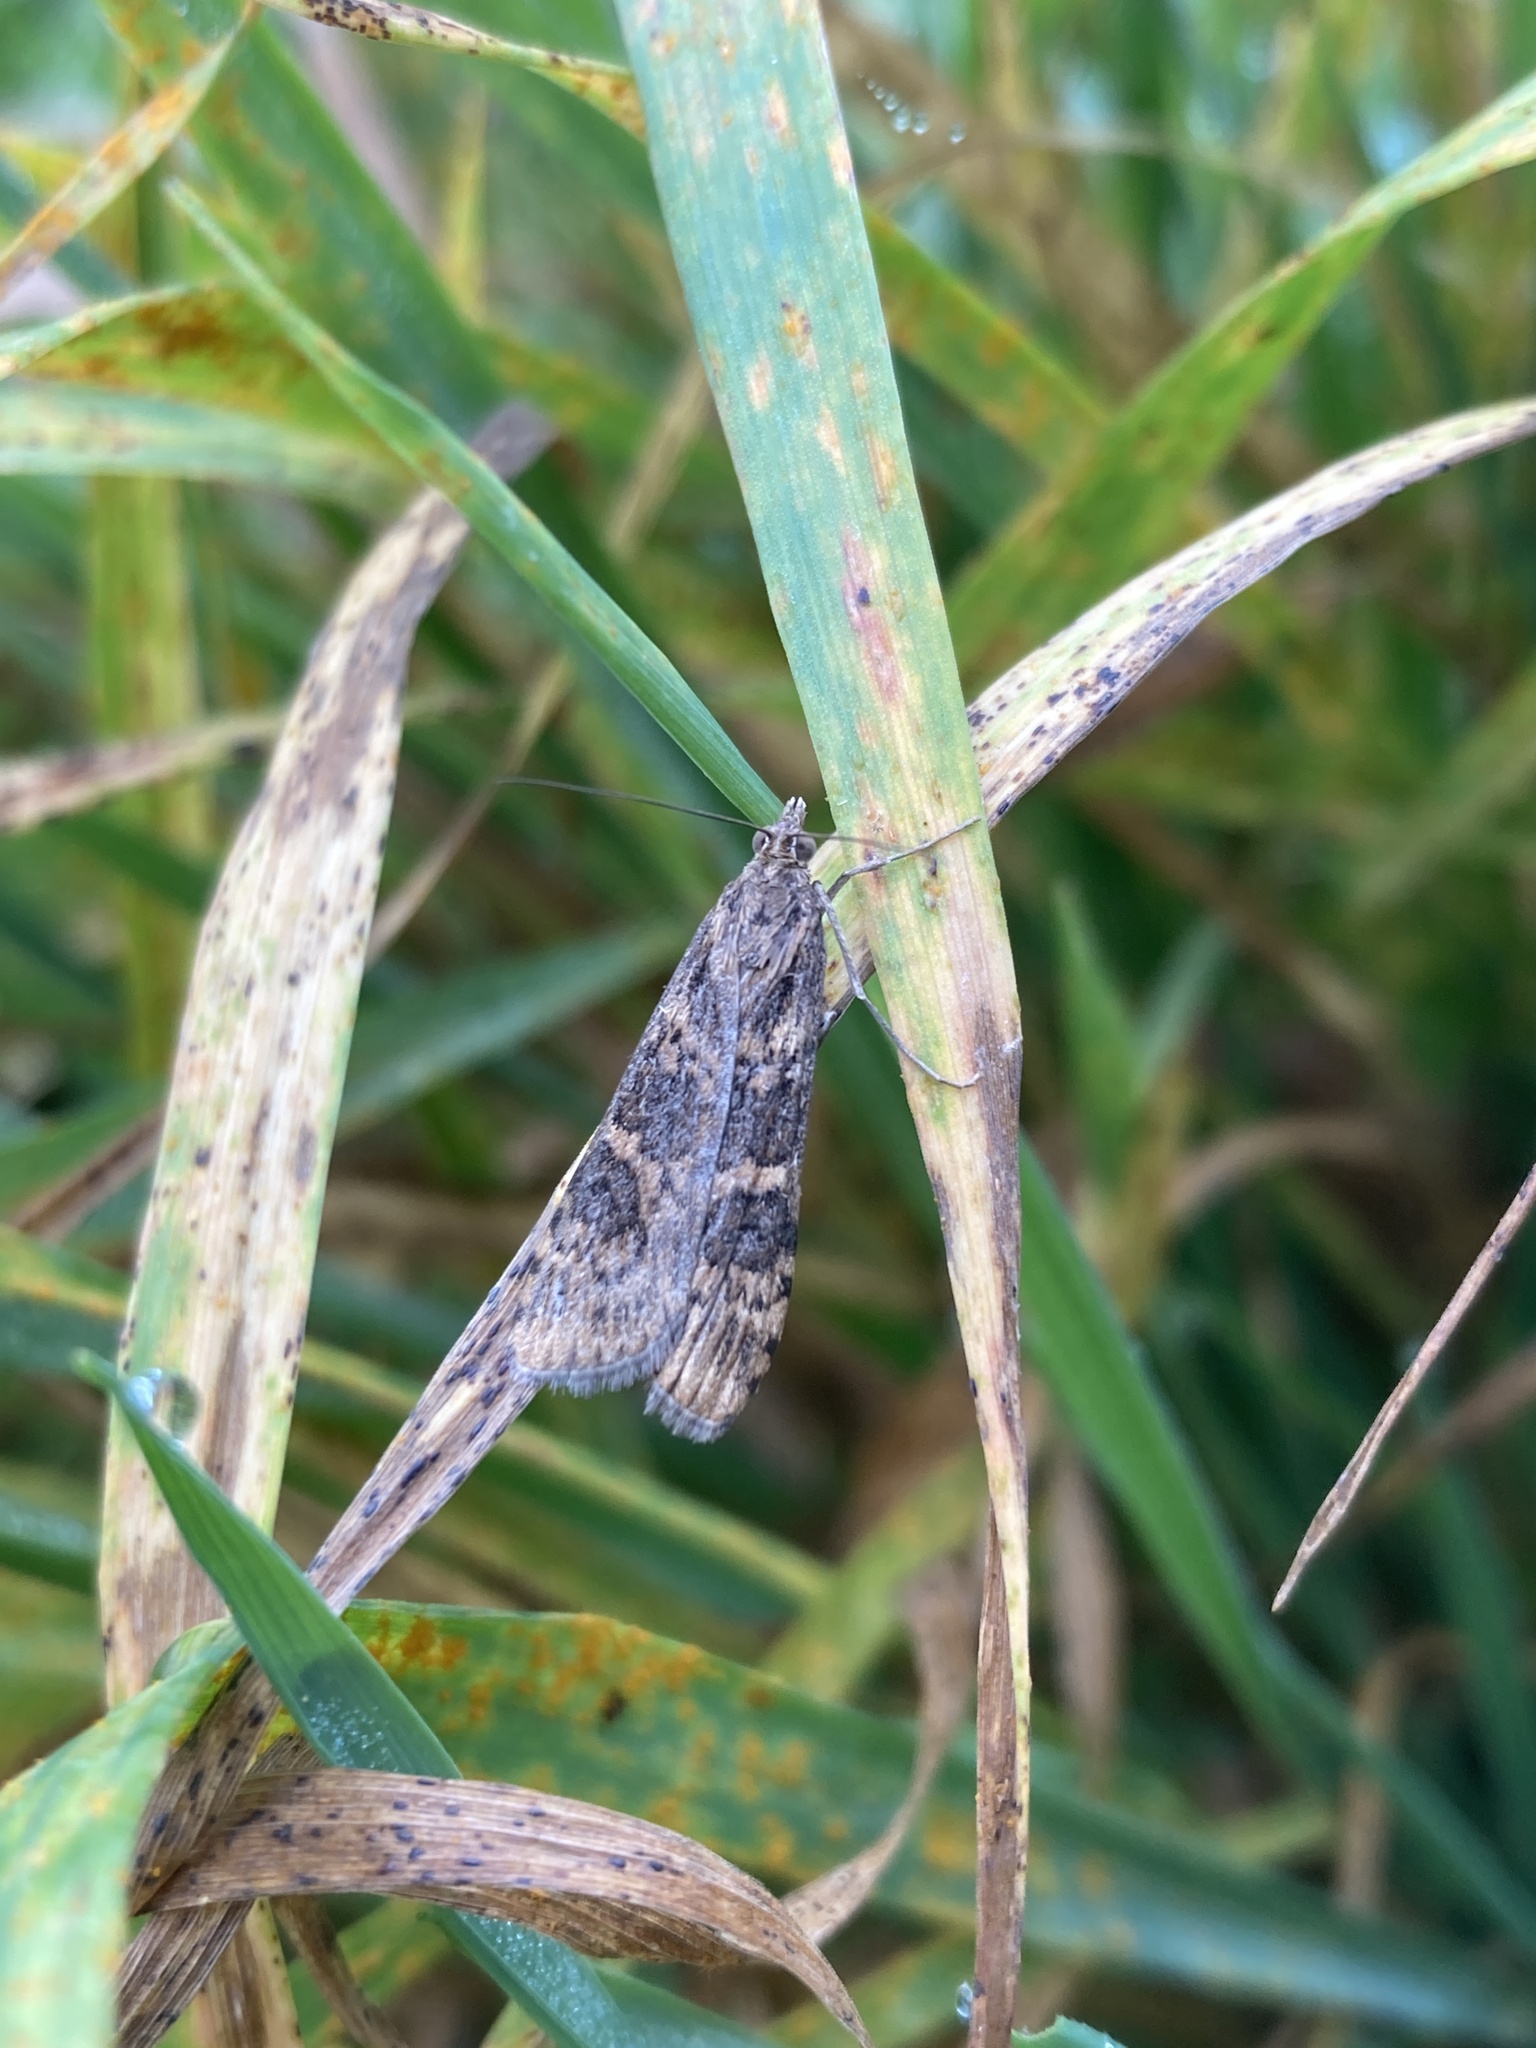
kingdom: Animalia
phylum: Arthropoda
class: Insecta
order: Lepidoptera
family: Crambidae
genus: Nomophila
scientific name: Nomophila noctuella
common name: Rush veneer
